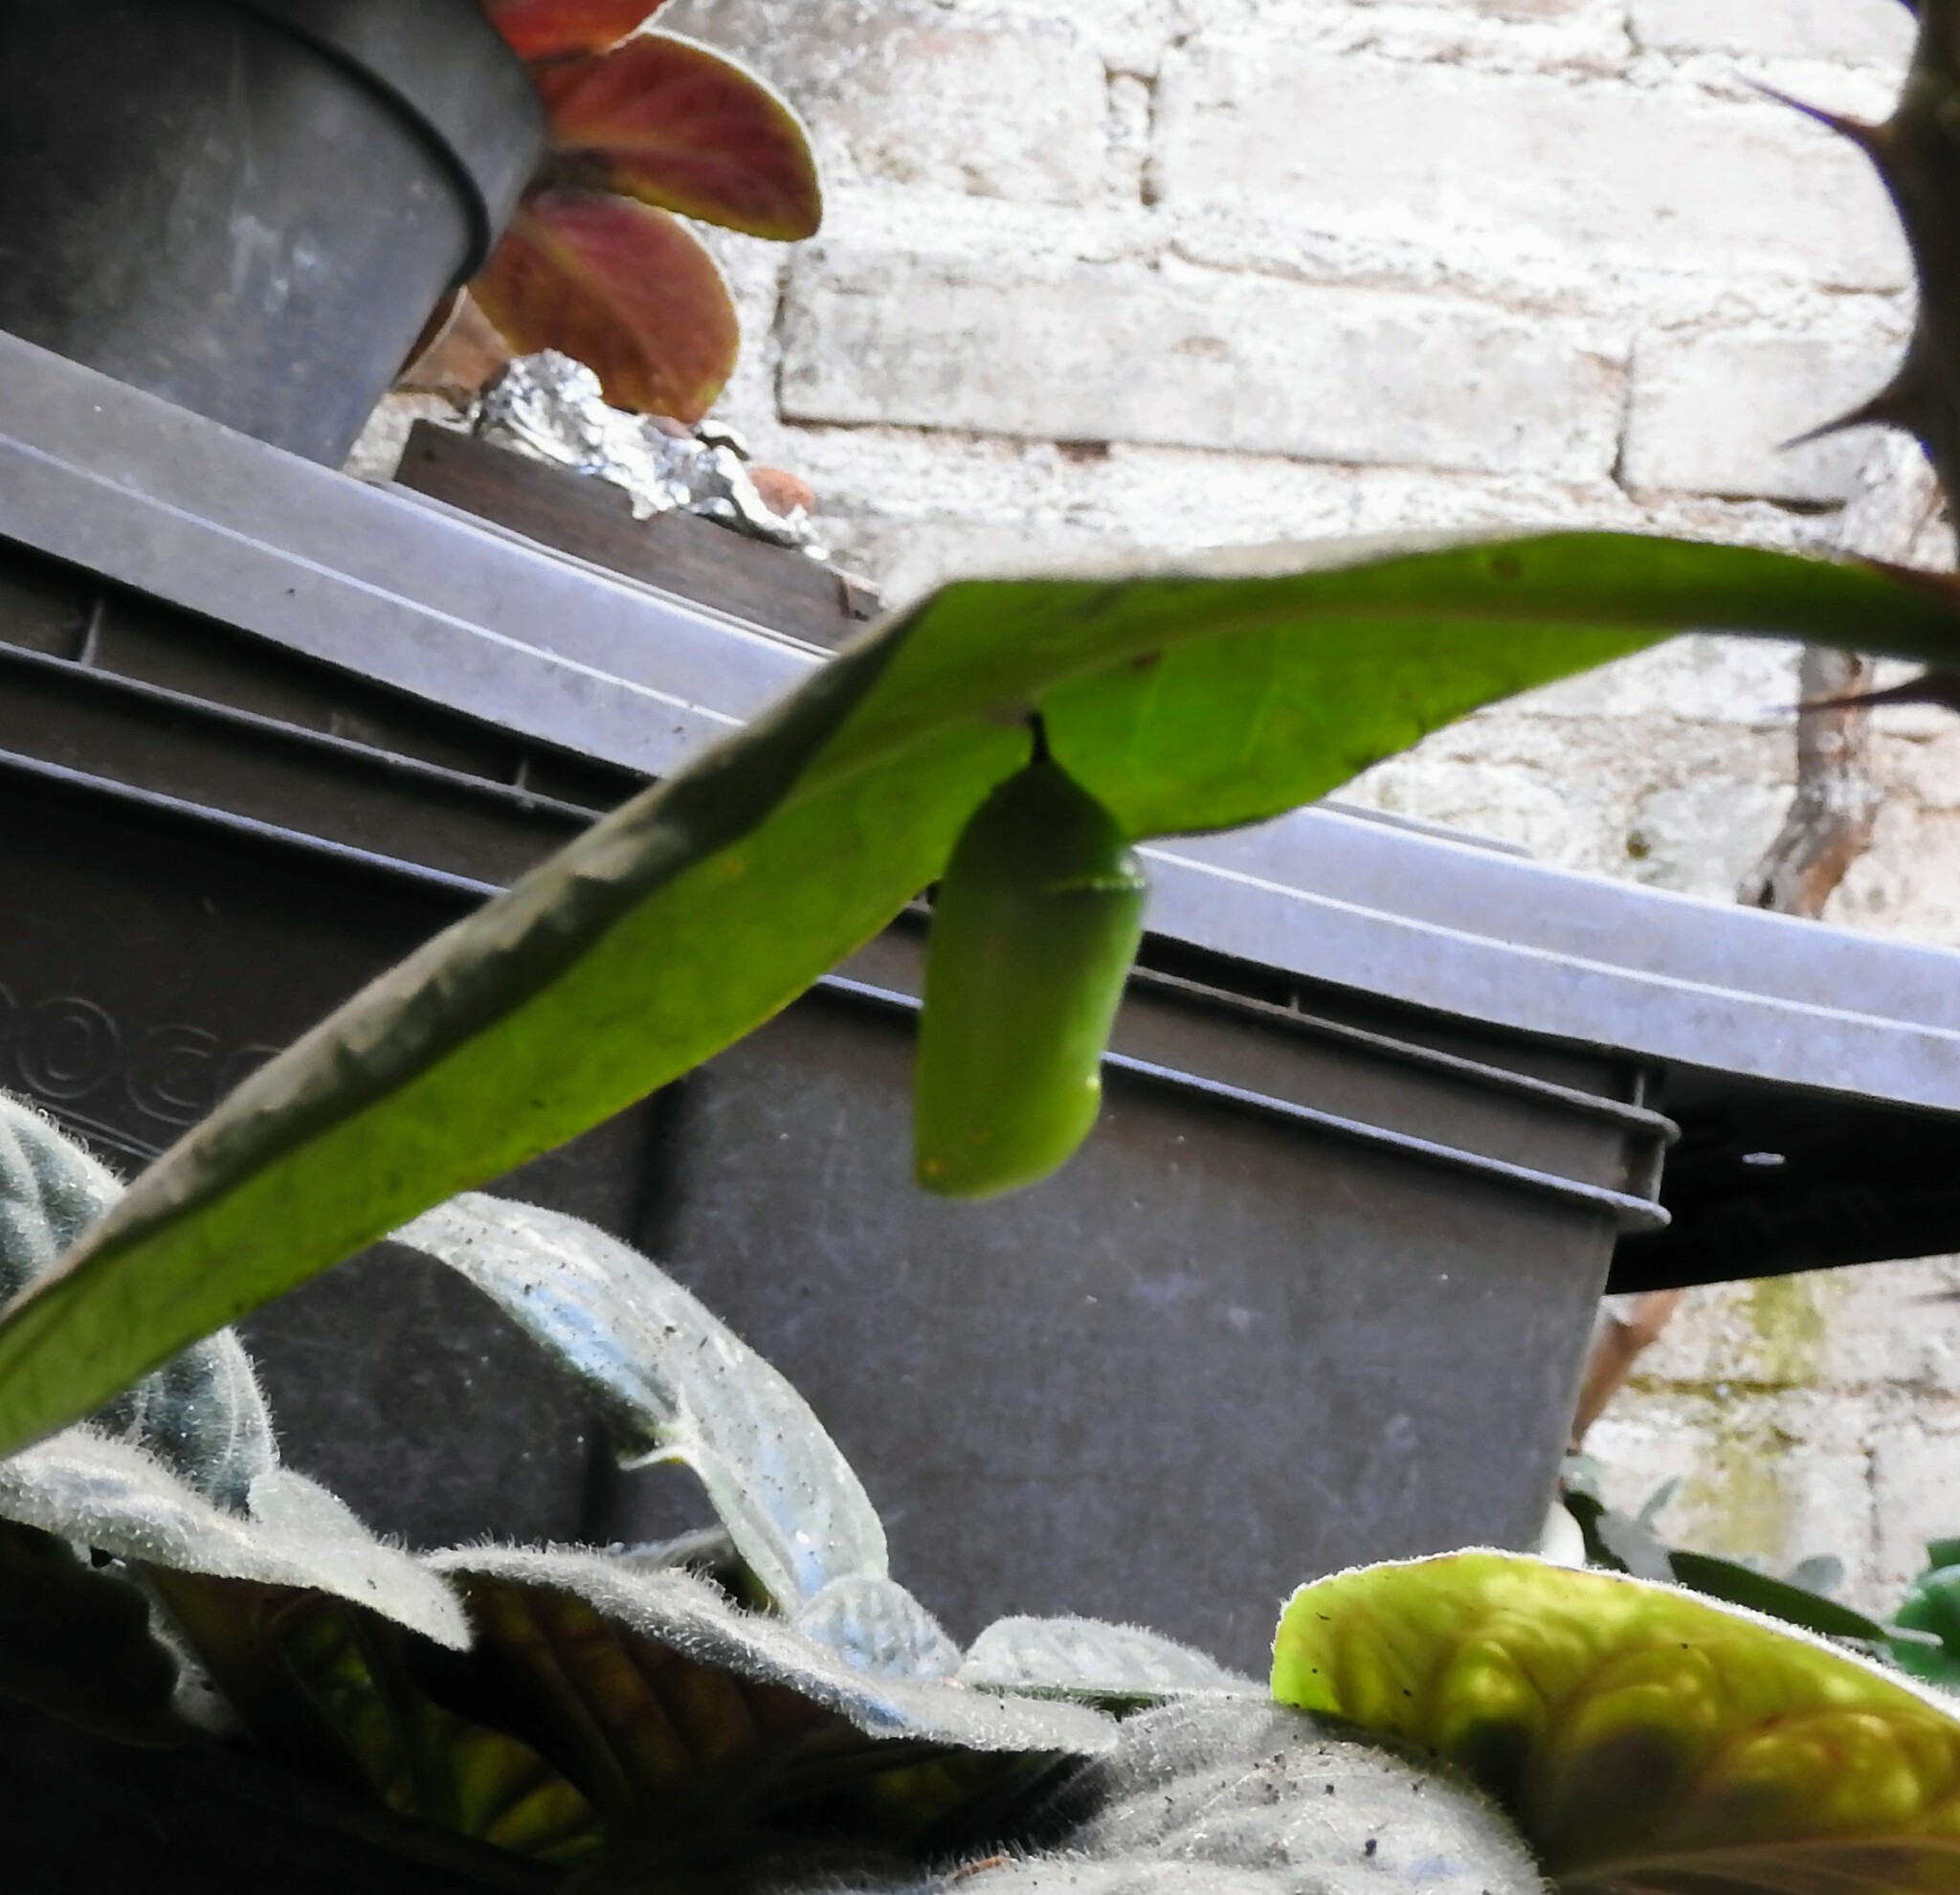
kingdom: Animalia
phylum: Arthropoda
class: Insecta
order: Lepidoptera
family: Nymphalidae
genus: Danaus
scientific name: Danaus plexippus
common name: Monarch
